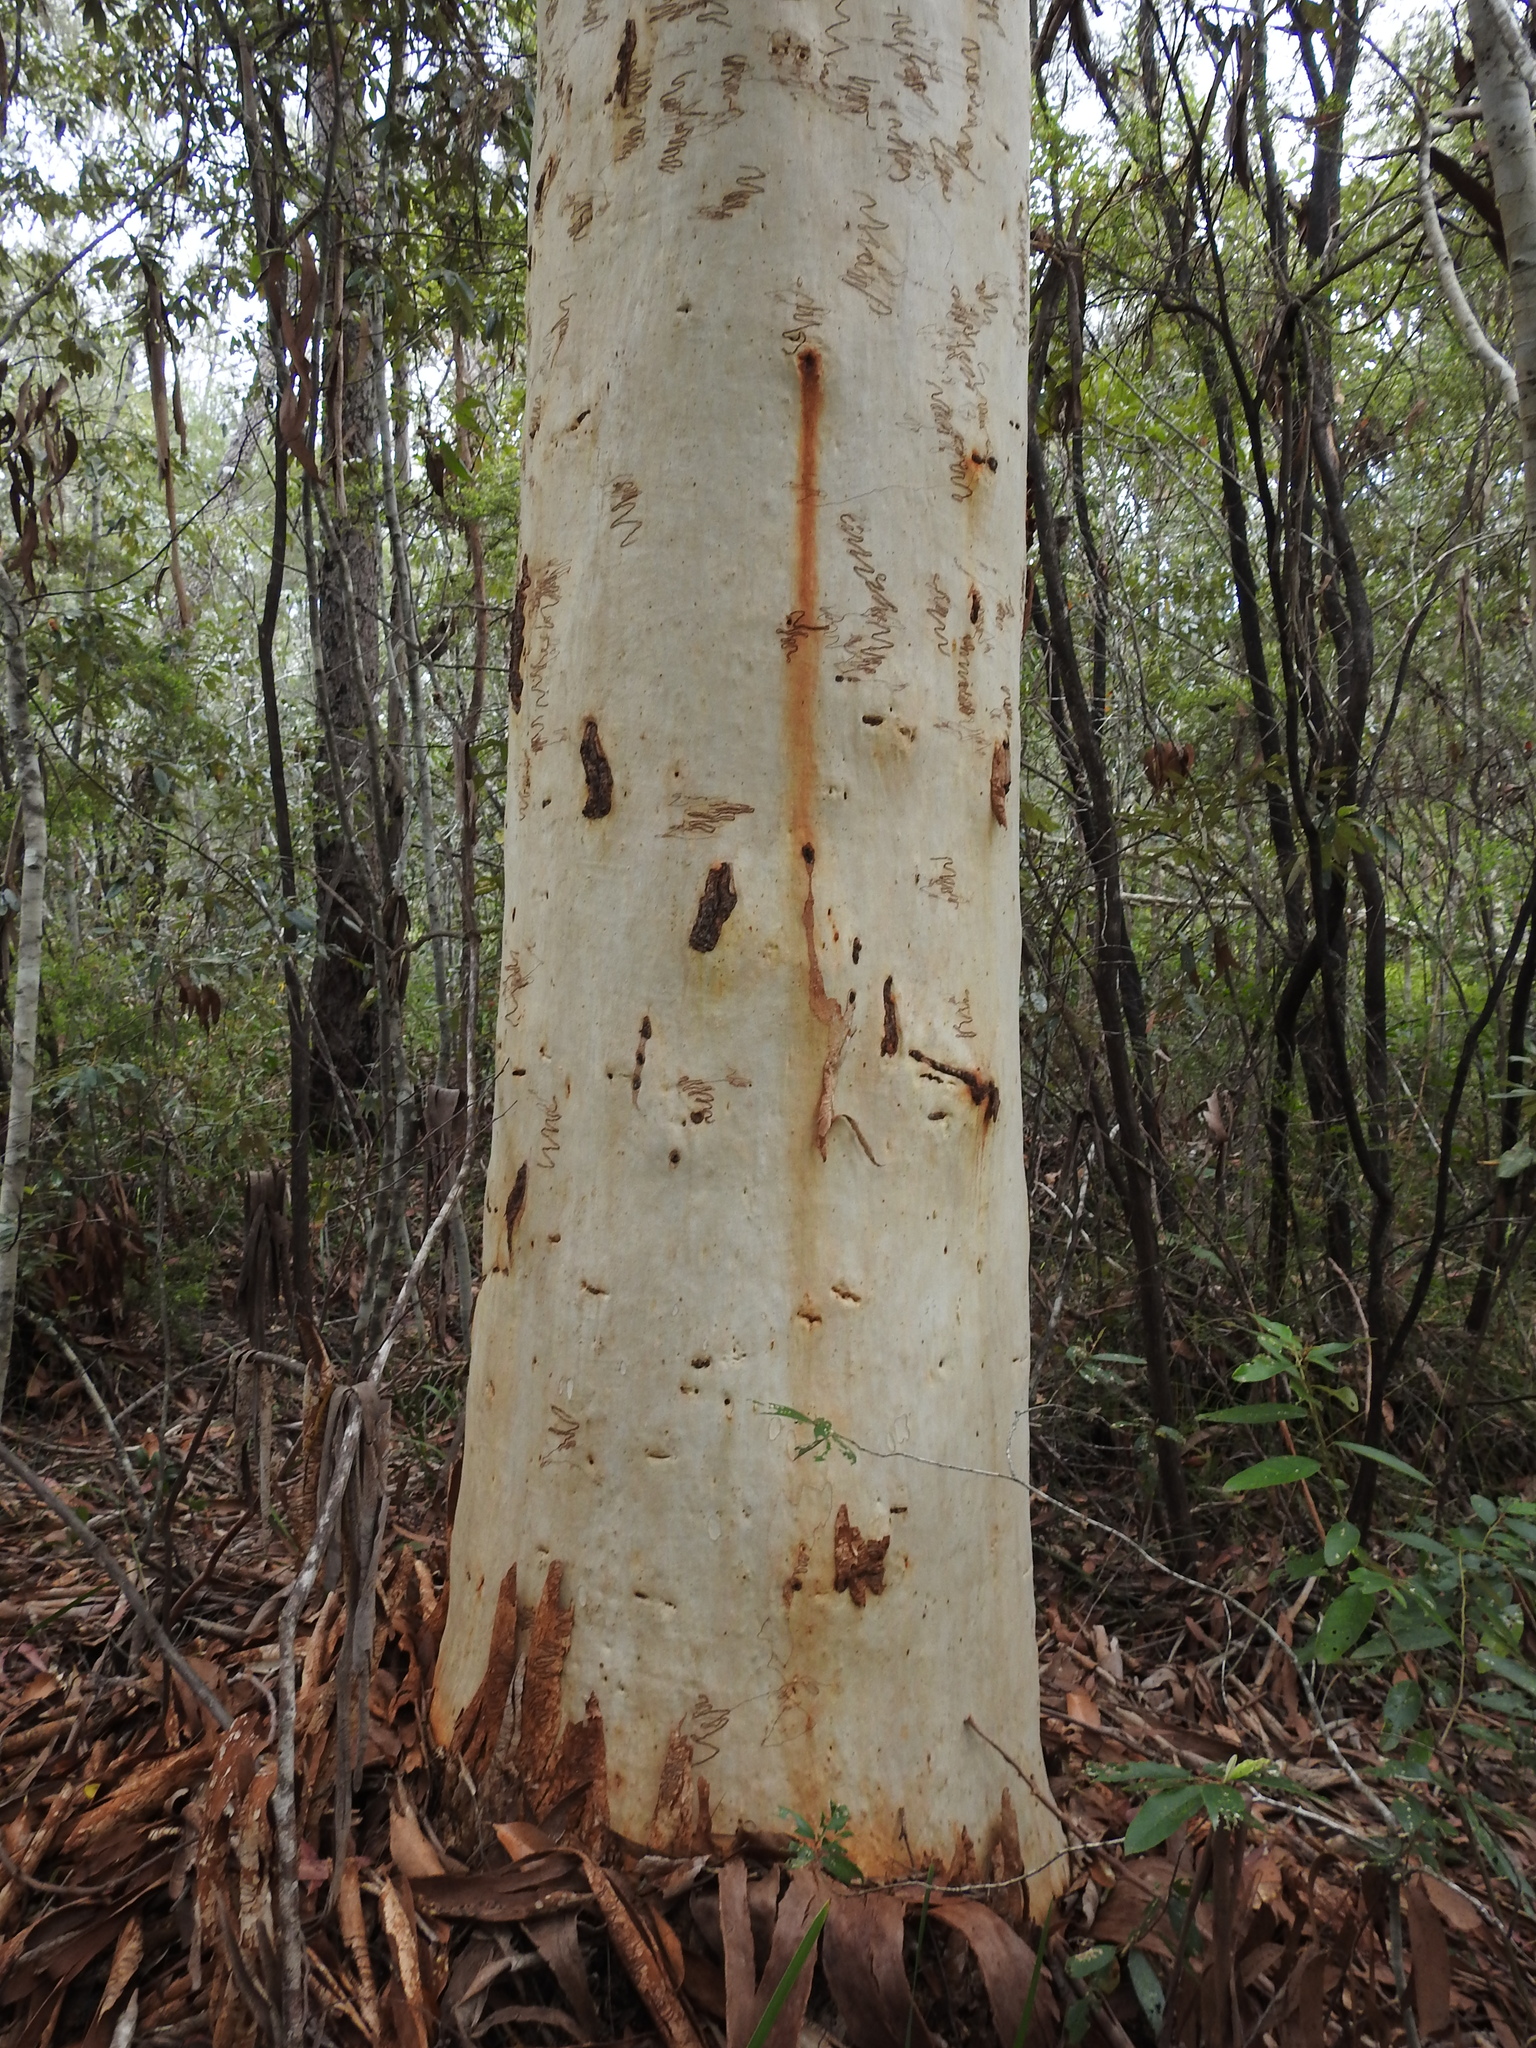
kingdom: Plantae
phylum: Tracheophyta
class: Magnoliopsida
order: Myrtales
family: Myrtaceae
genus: Eucalyptus
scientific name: Eucalyptus racemosa
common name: Scribbly gum
